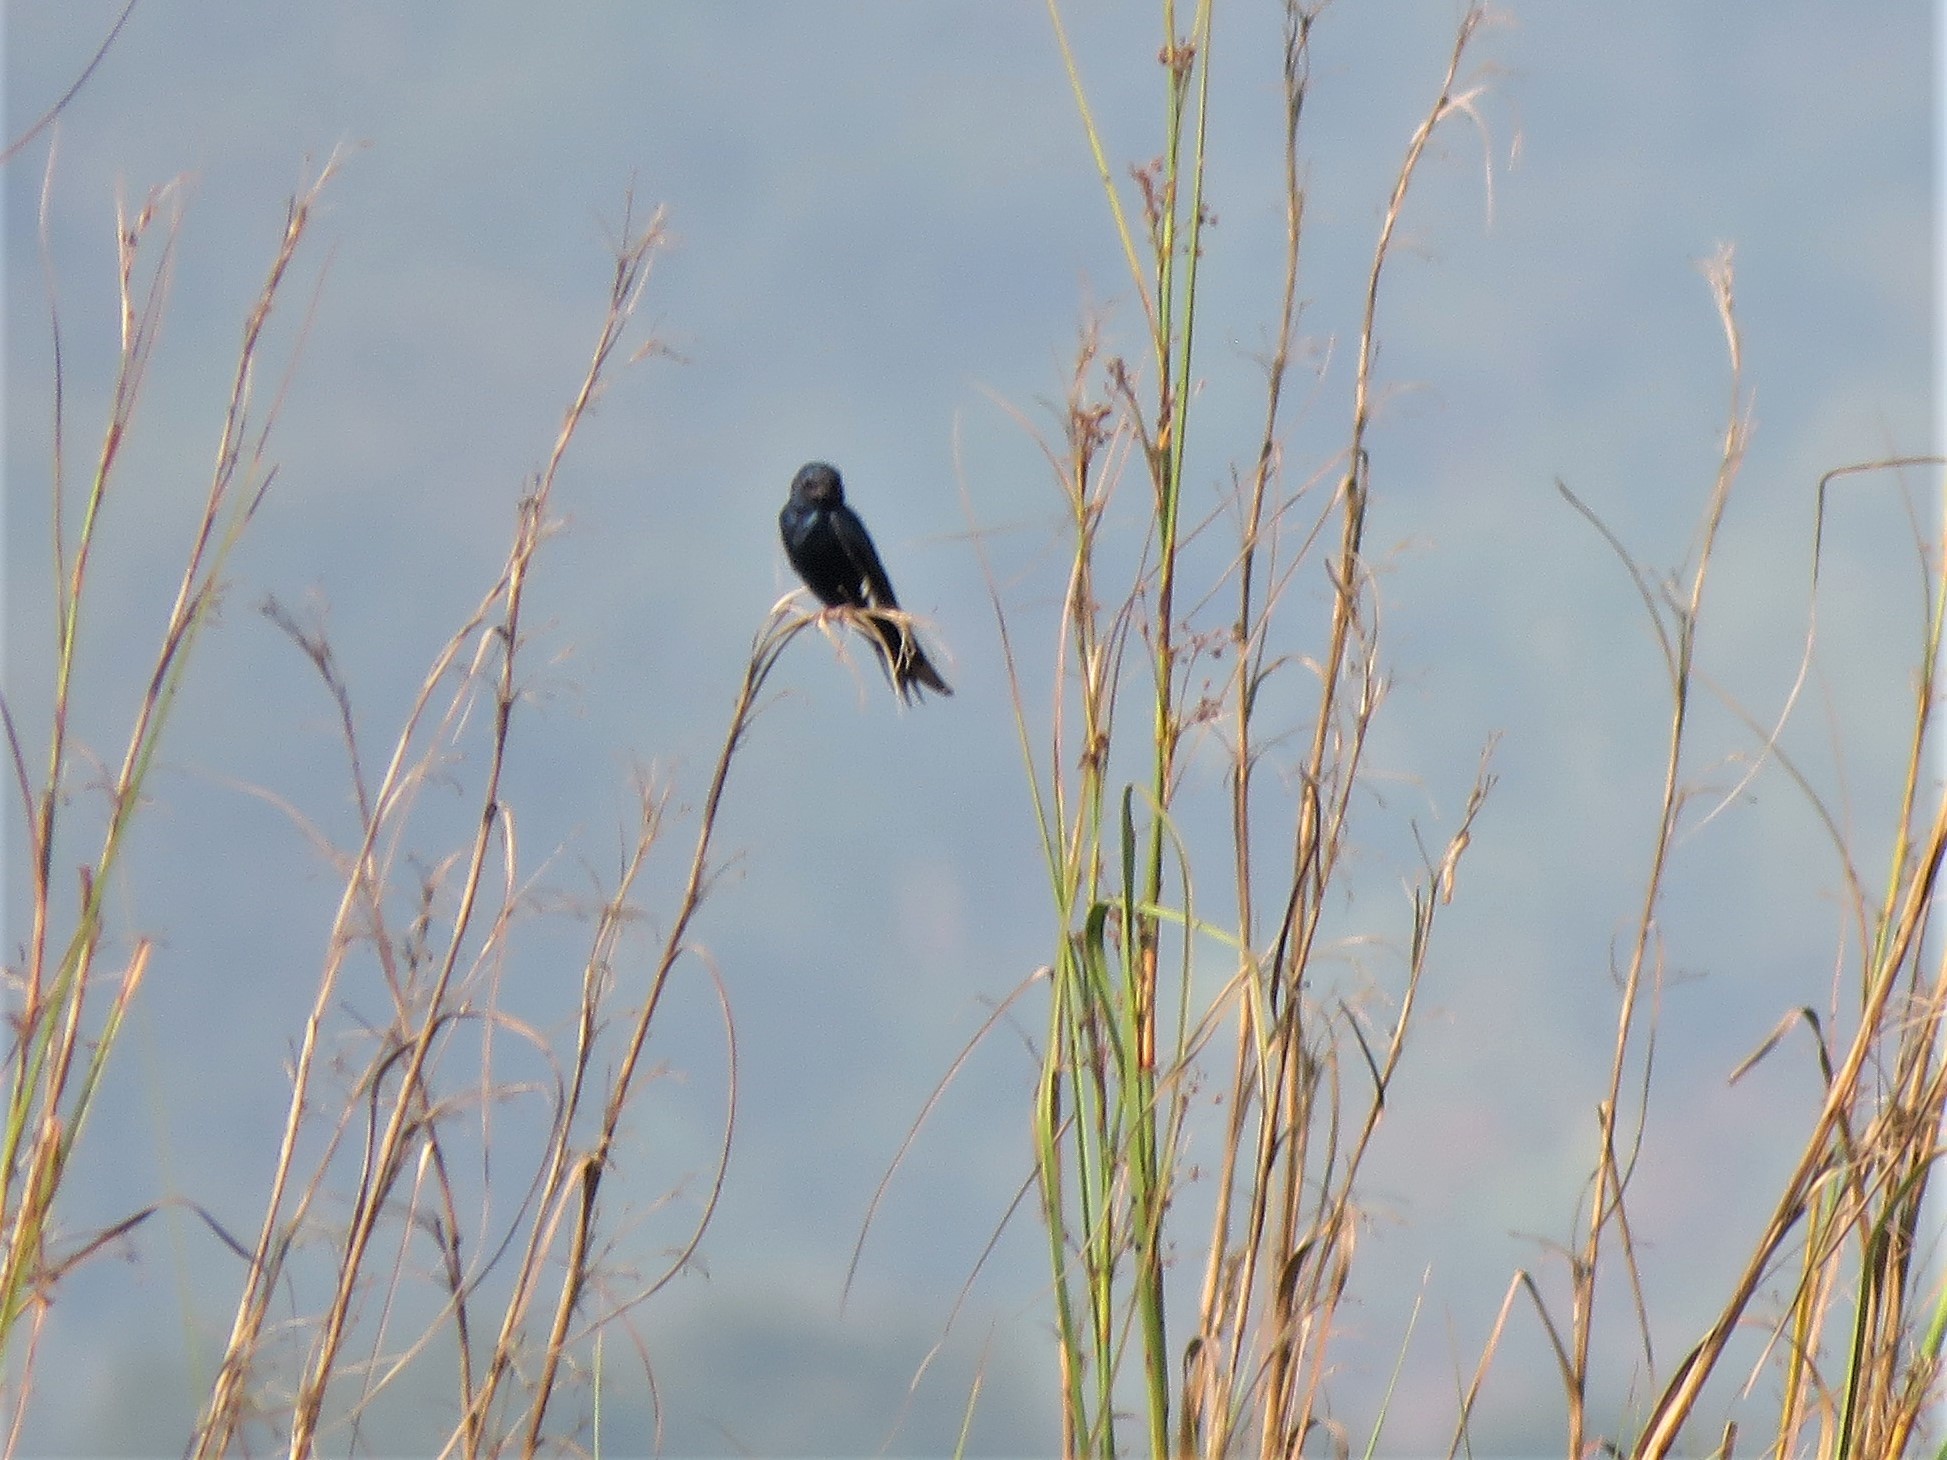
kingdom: Animalia
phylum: Chordata
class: Aves
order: Passeriformes
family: Hirundinidae
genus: Hirundo
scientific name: Hirundo atrocaerulea
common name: Blue swallow
